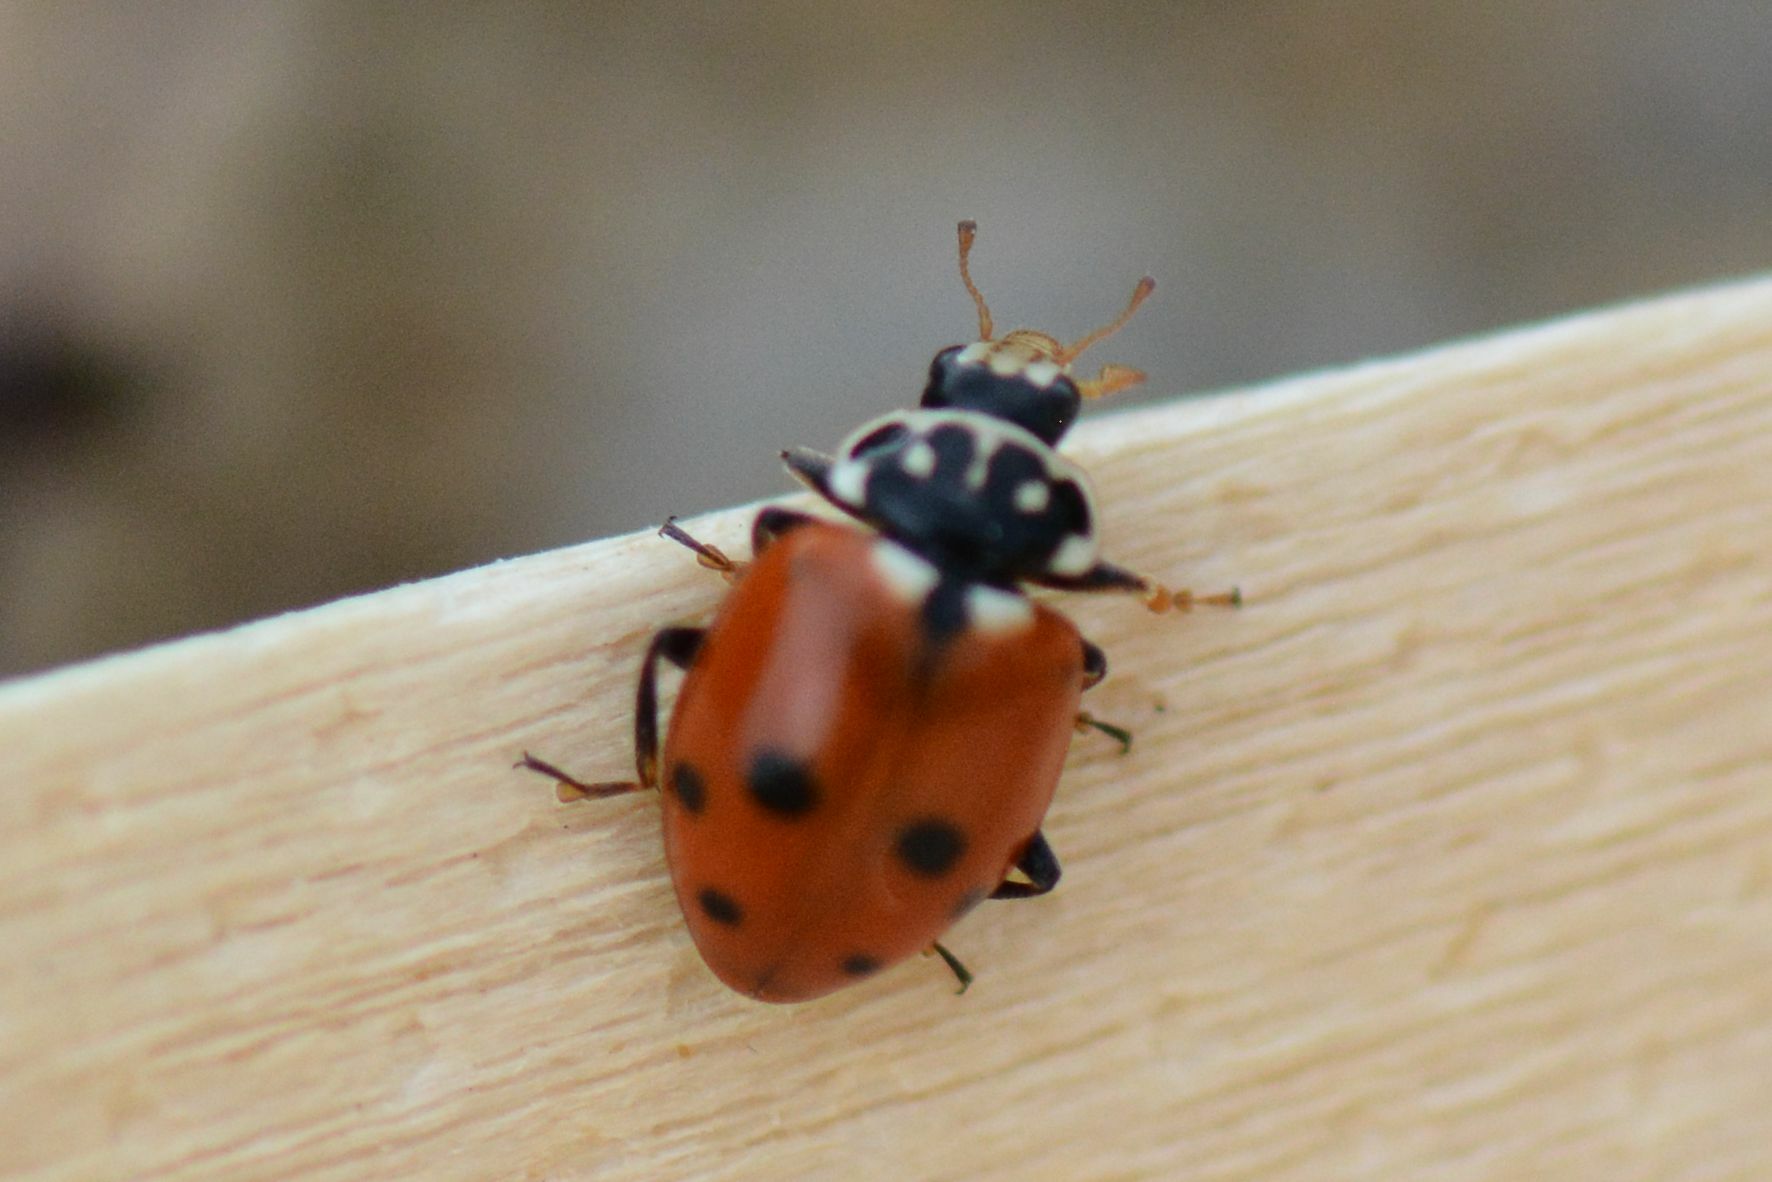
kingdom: Animalia
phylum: Arthropoda
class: Insecta
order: Coleoptera
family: Coccinellidae
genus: Hippodamia
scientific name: Hippodamia variegata
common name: Ladybird beetle
